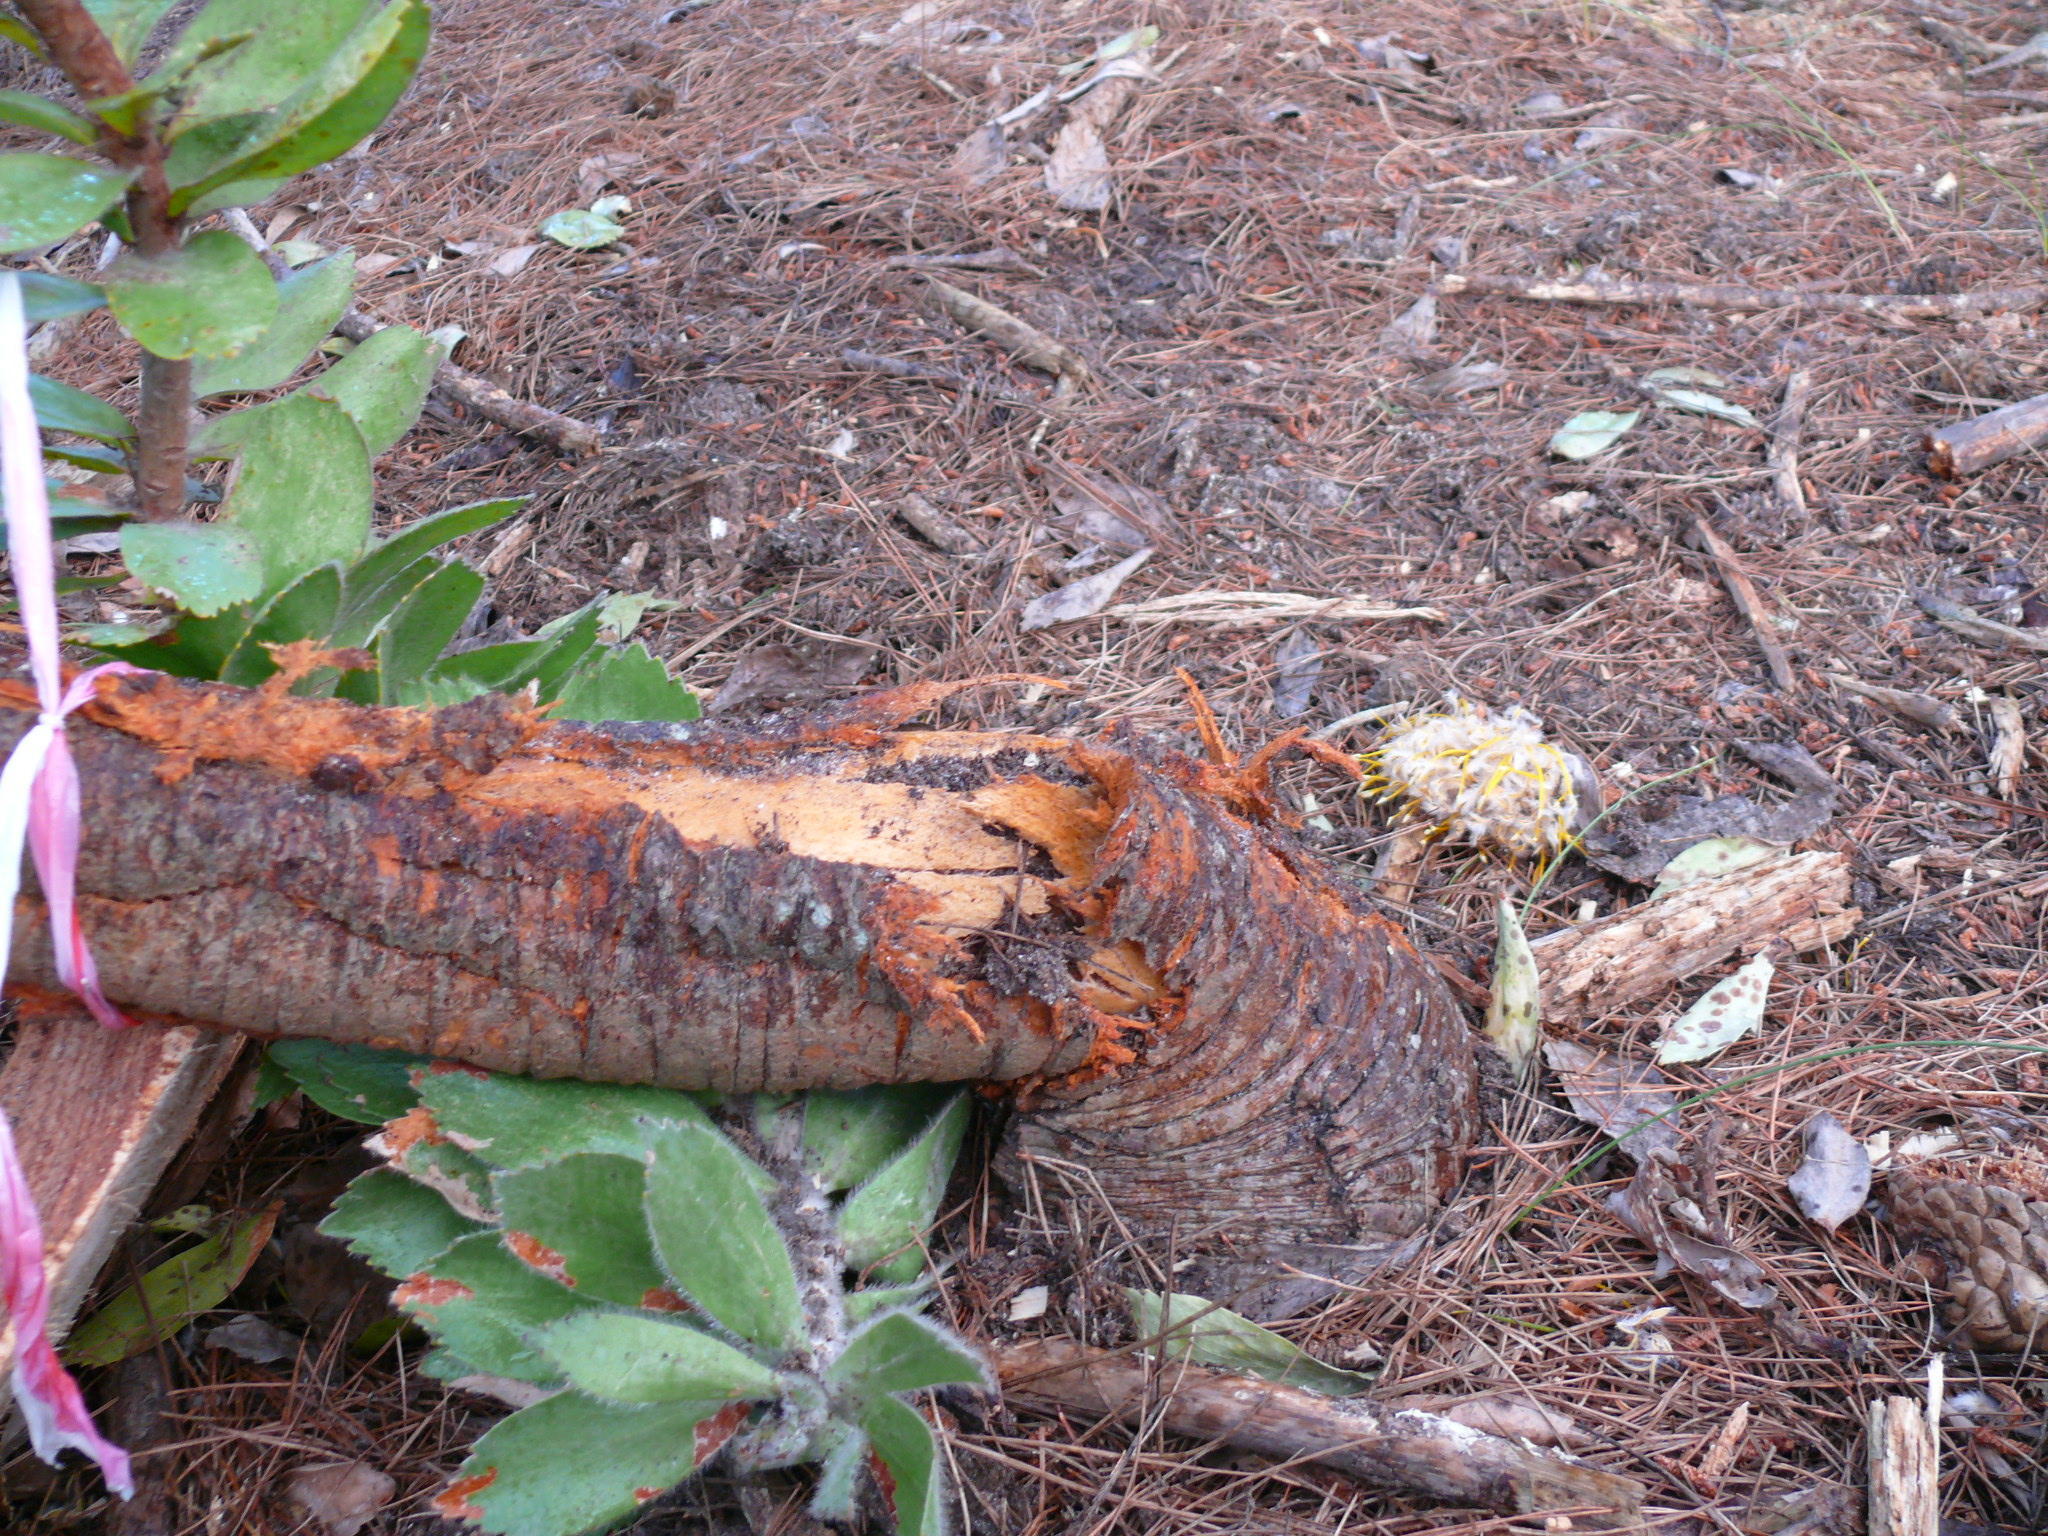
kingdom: Plantae
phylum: Tracheophyta
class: Magnoliopsida
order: Proteales
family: Proteaceae
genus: Leucospermum
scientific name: Leucospermum conocarpodendron
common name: Tree pincushion
